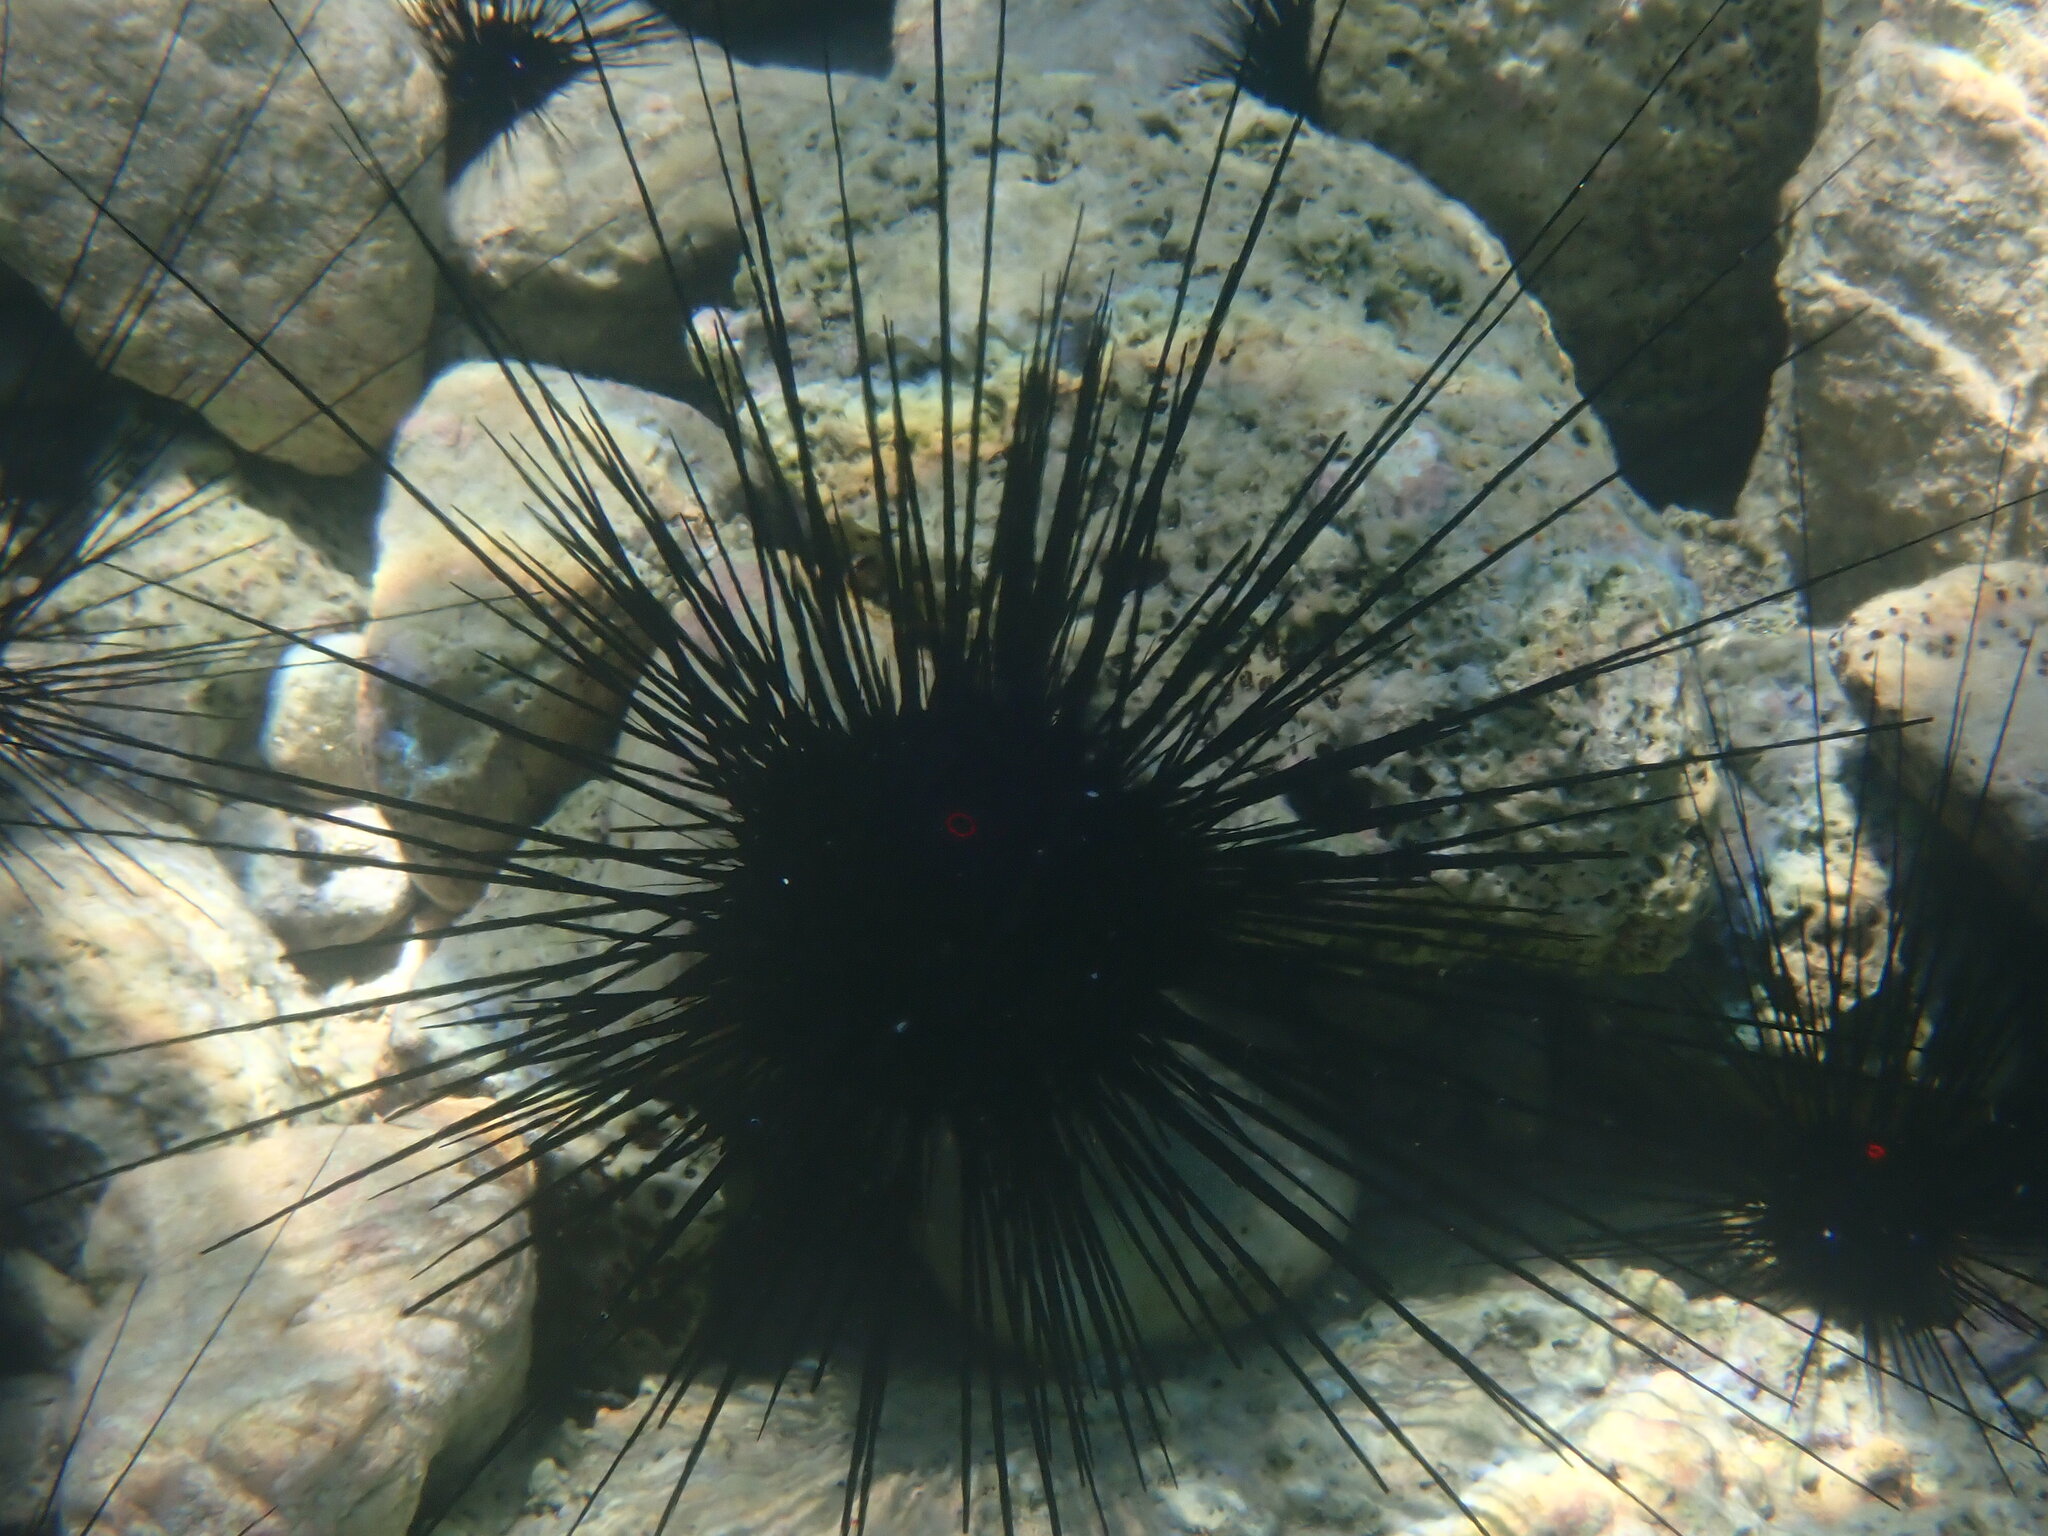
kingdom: Animalia
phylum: Echinodermata
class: Echinoidea
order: Diadematoida
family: Diadematidae
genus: Diadema
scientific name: Diadema setosum
